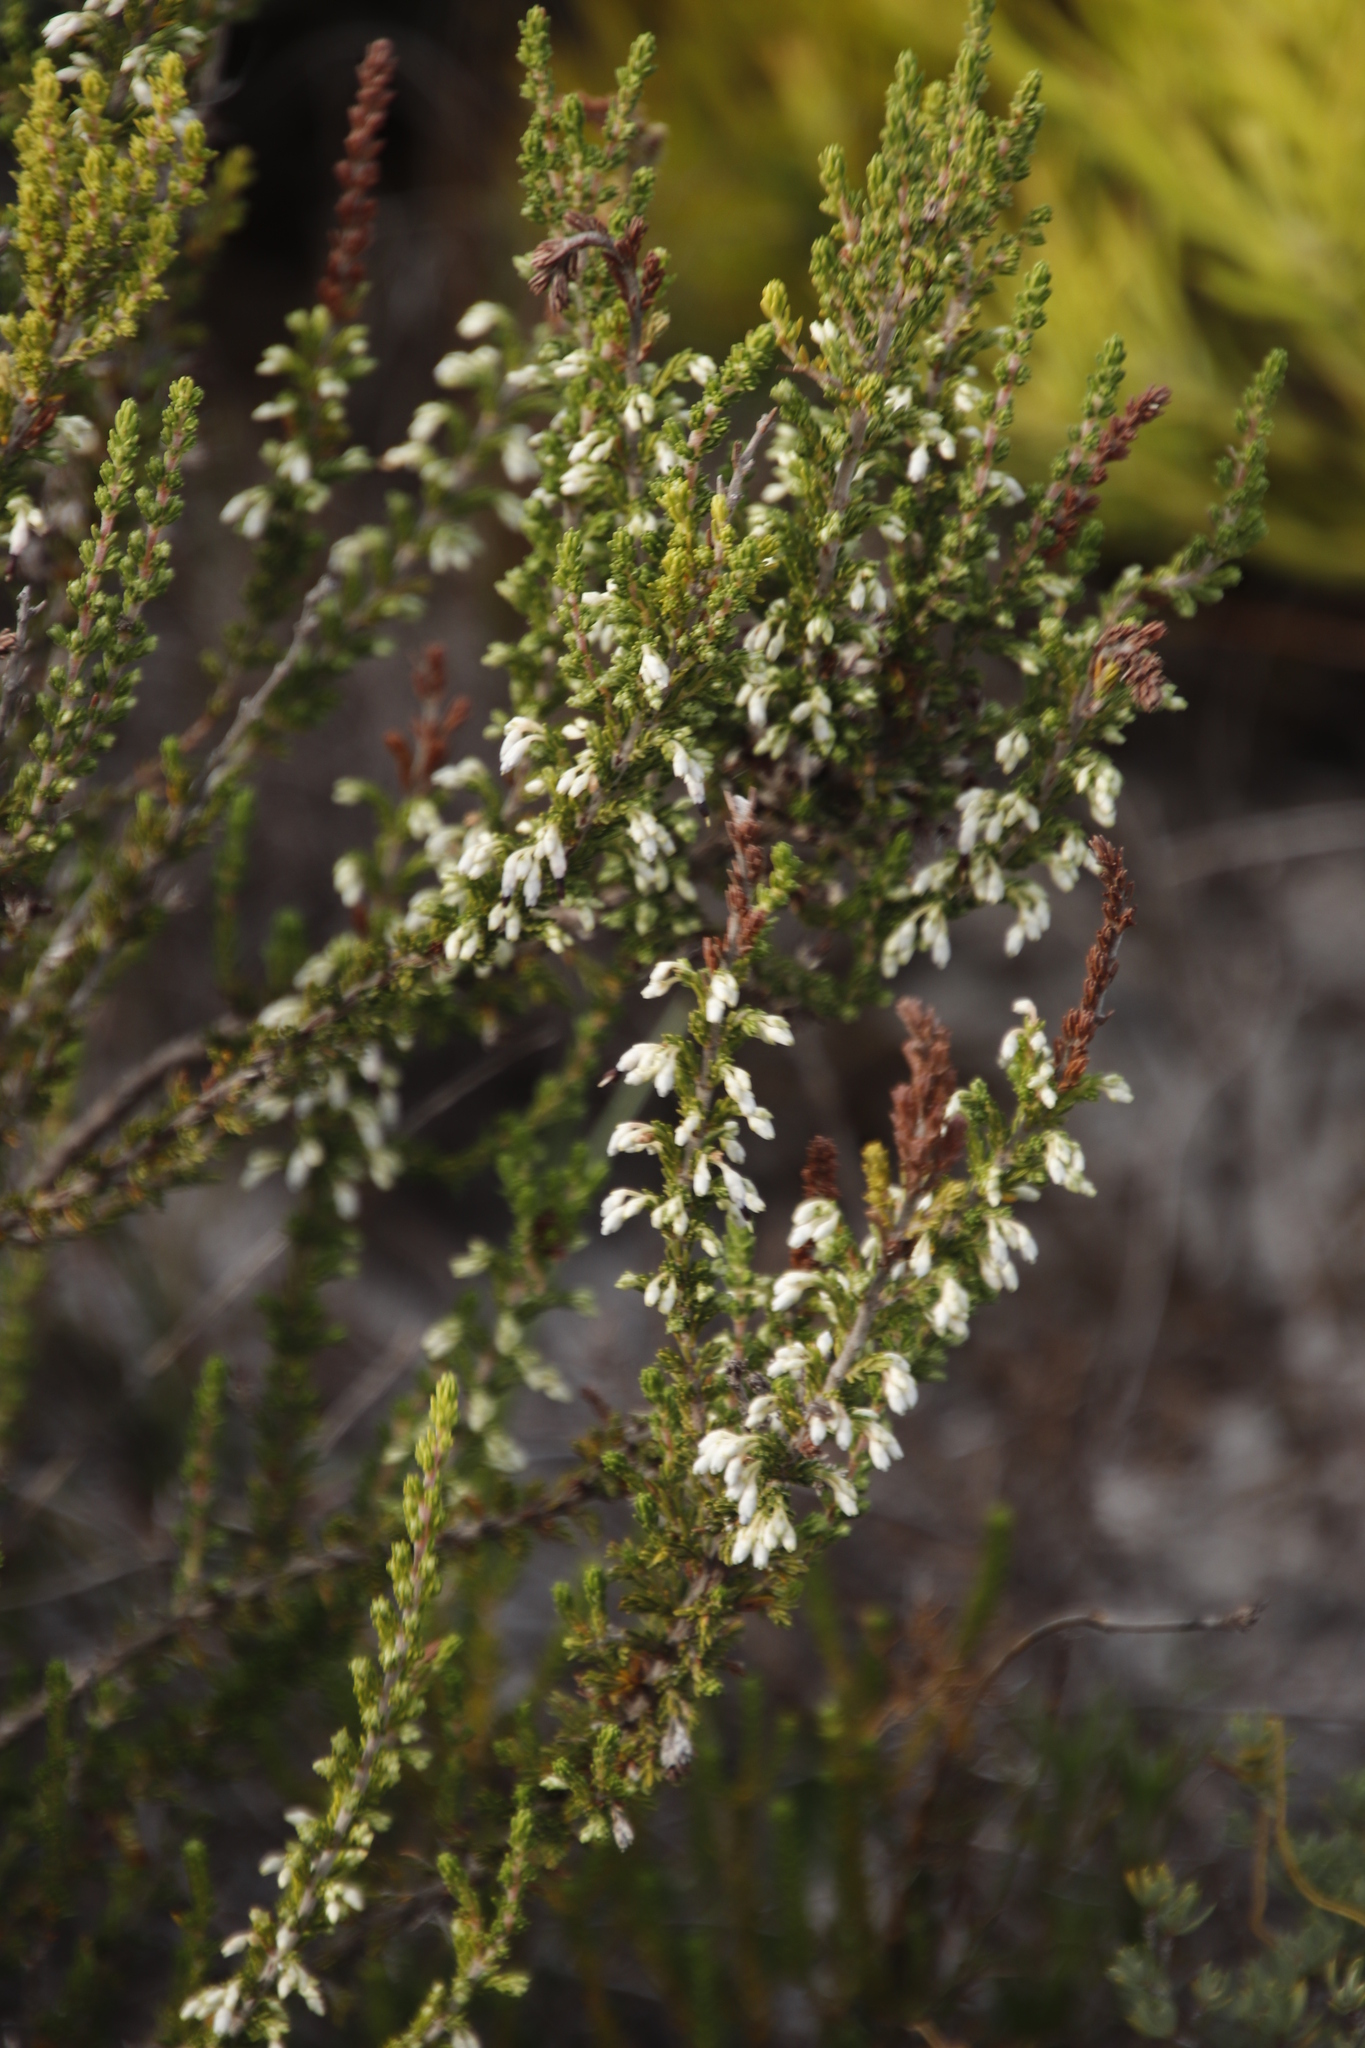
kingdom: Plantae
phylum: Tracheophyta
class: Magnoliopsida
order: Ericales
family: Ericaceae
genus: Erica
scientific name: Erica imbricata
